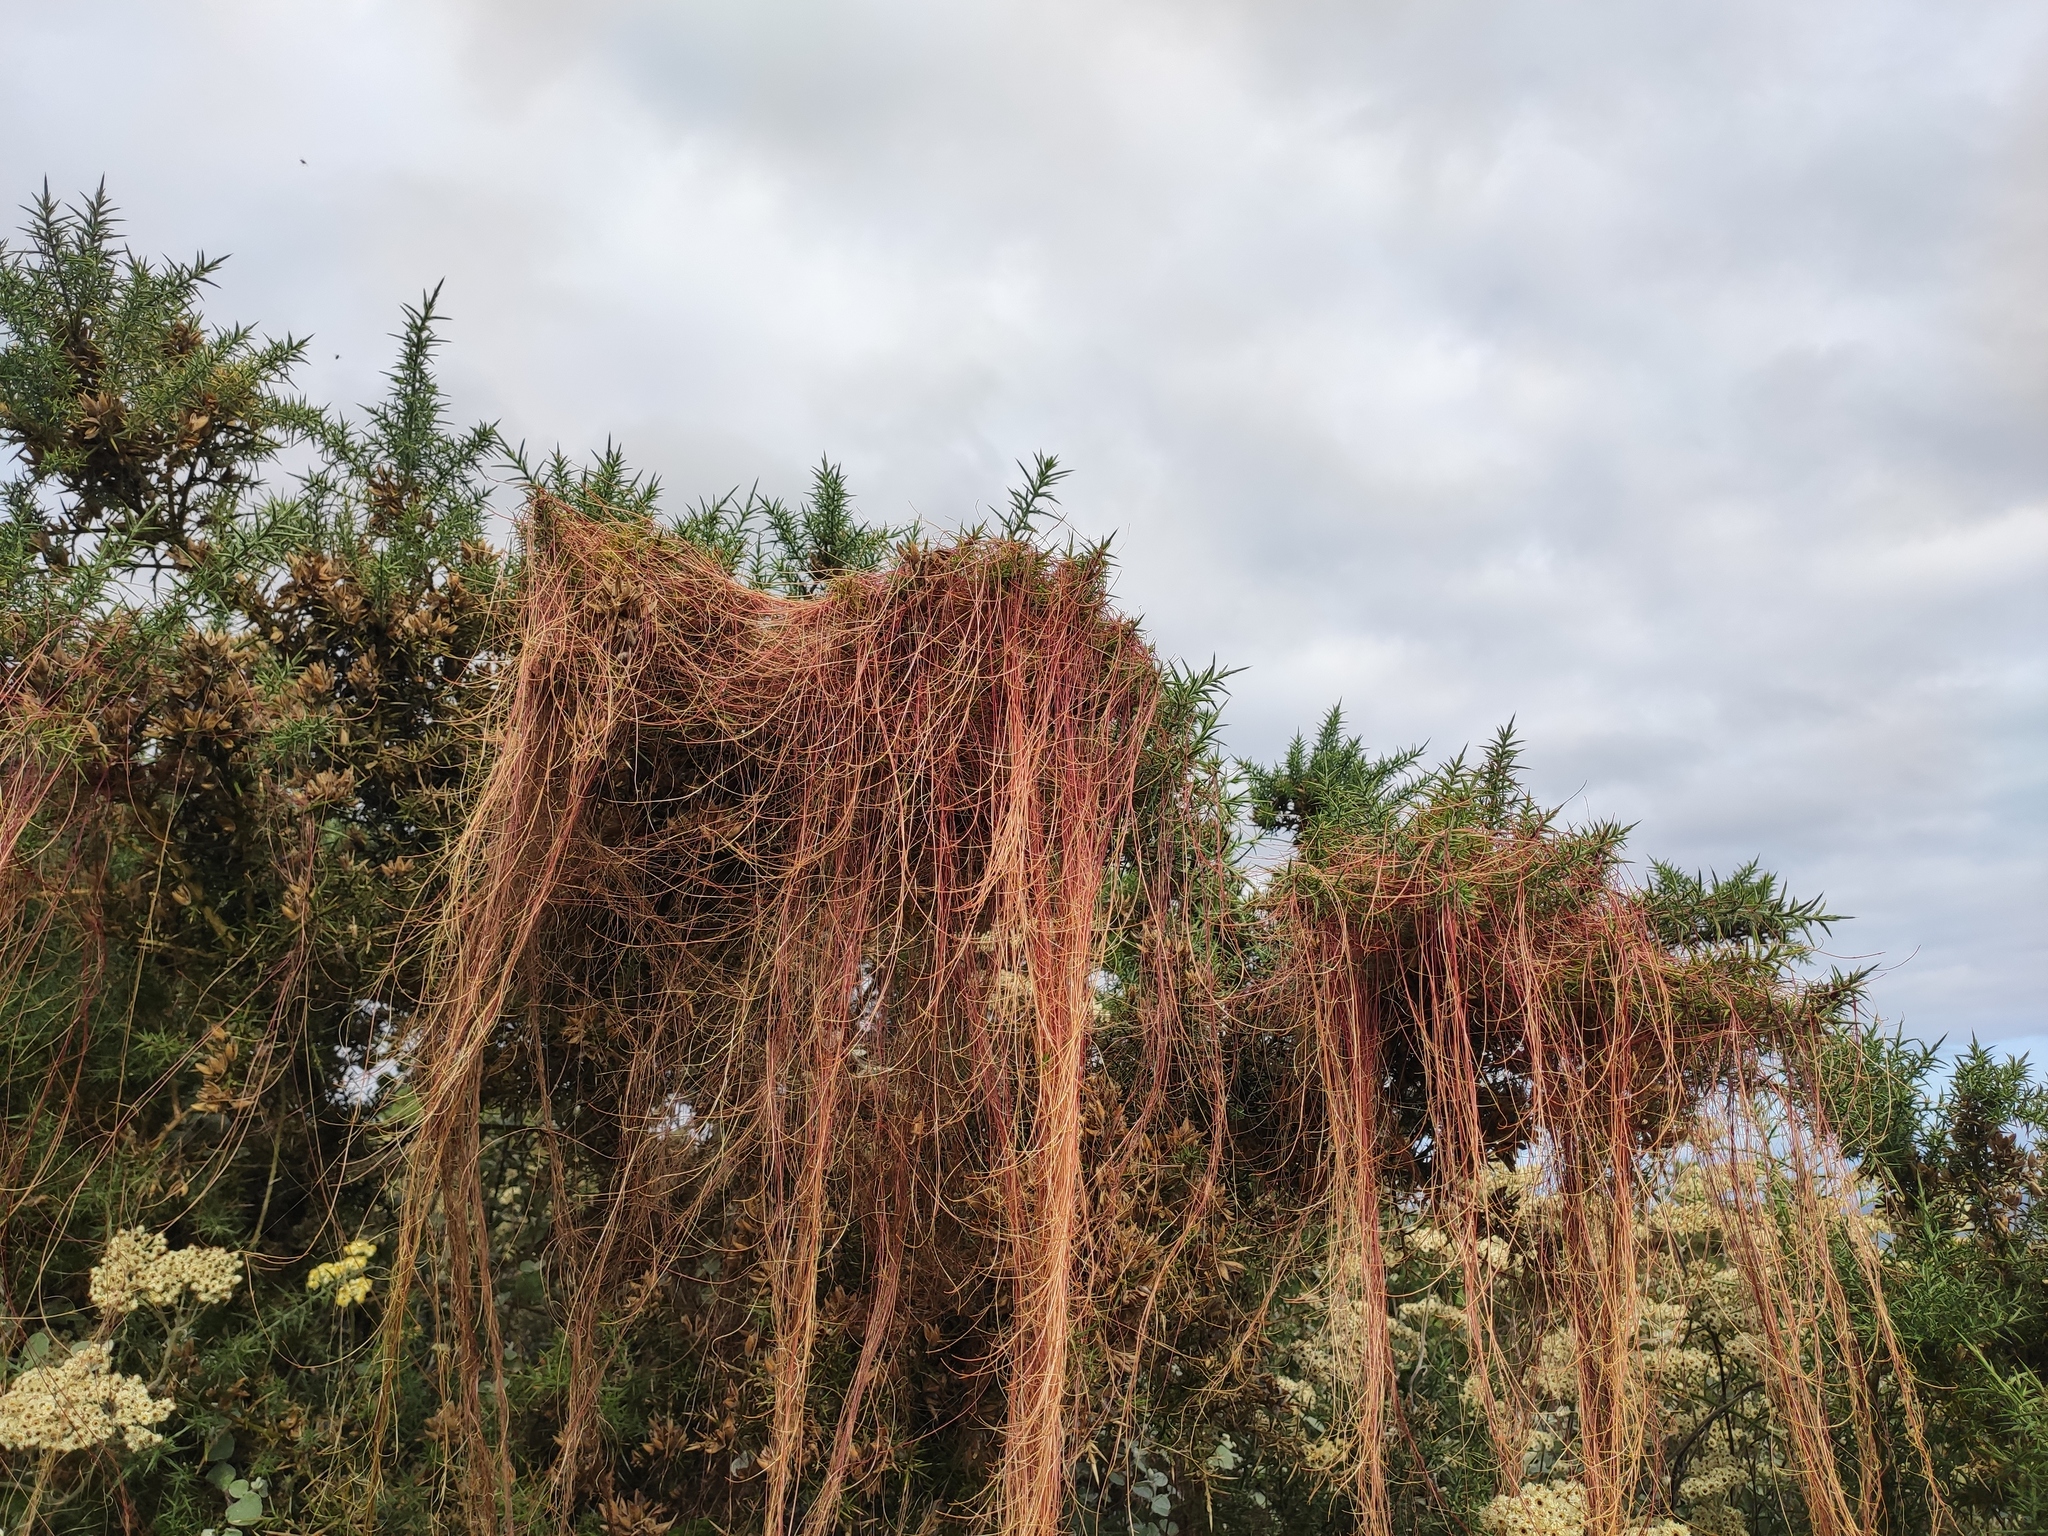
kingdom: Plantae
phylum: Tracheophyta
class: Magnoliopsida
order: Solanales
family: Convolvulaceae
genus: Cuscuta
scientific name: Cuscuta epithymum
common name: Clover dodder
